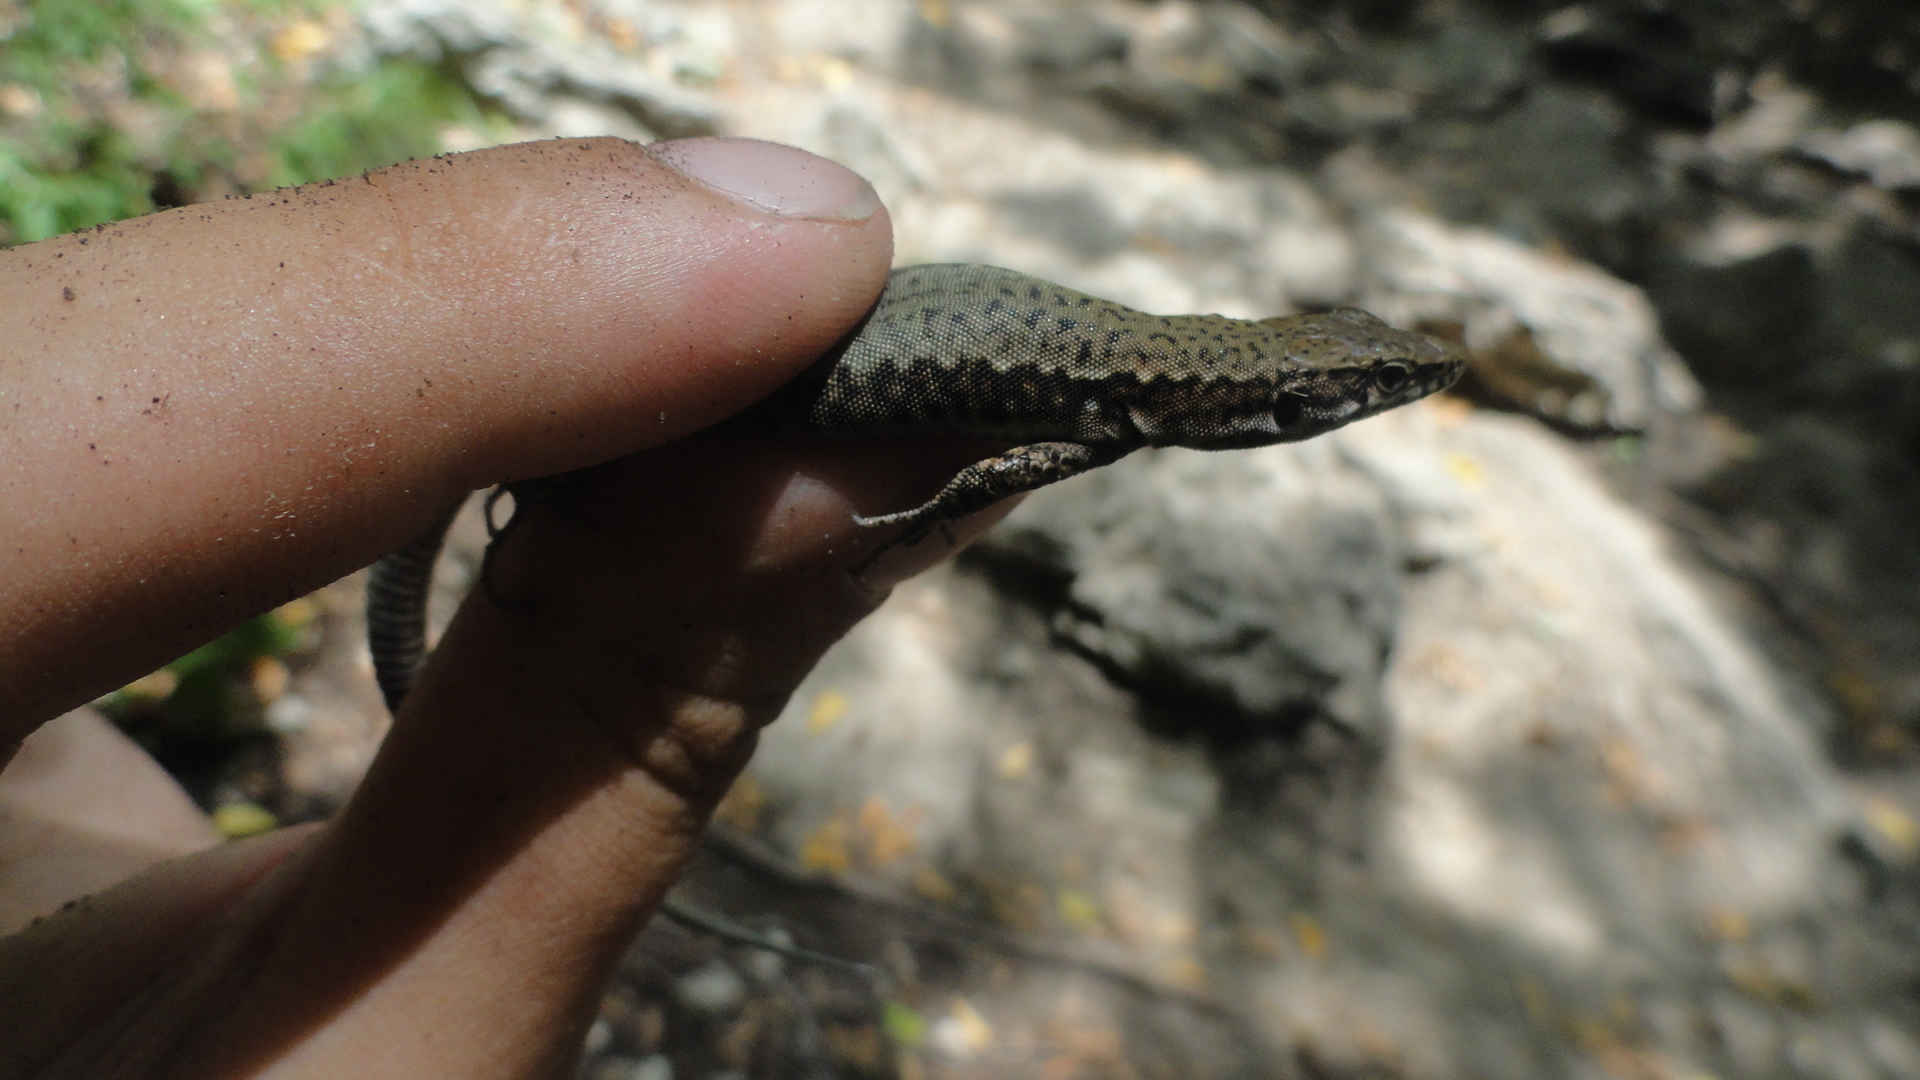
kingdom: Animalia
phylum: Chordata
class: Squamata
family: Lacertidae
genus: Darevskia
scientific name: Darevskia lindholmi
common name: Crimean rock lizard
